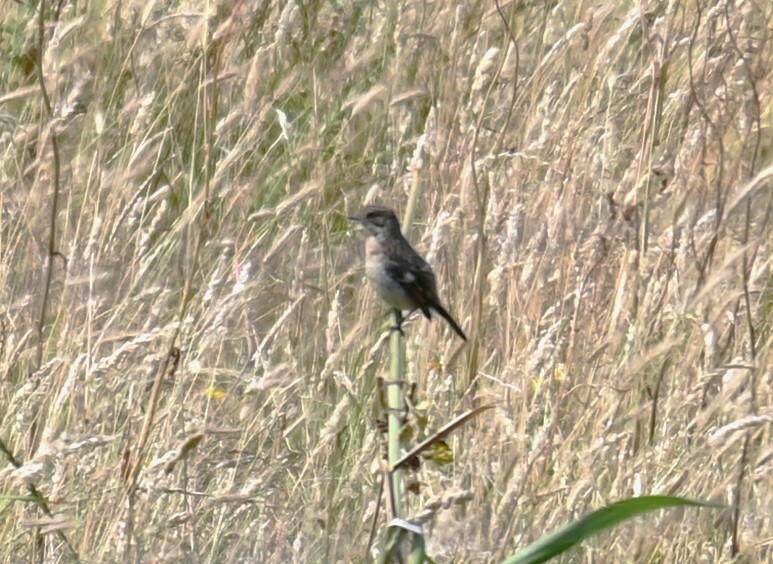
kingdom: Animalia
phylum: Chordata
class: Aves
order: Passeriformes
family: Muscicapidae
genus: Saxicola
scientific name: Saxicola rubicola
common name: European stonechat
